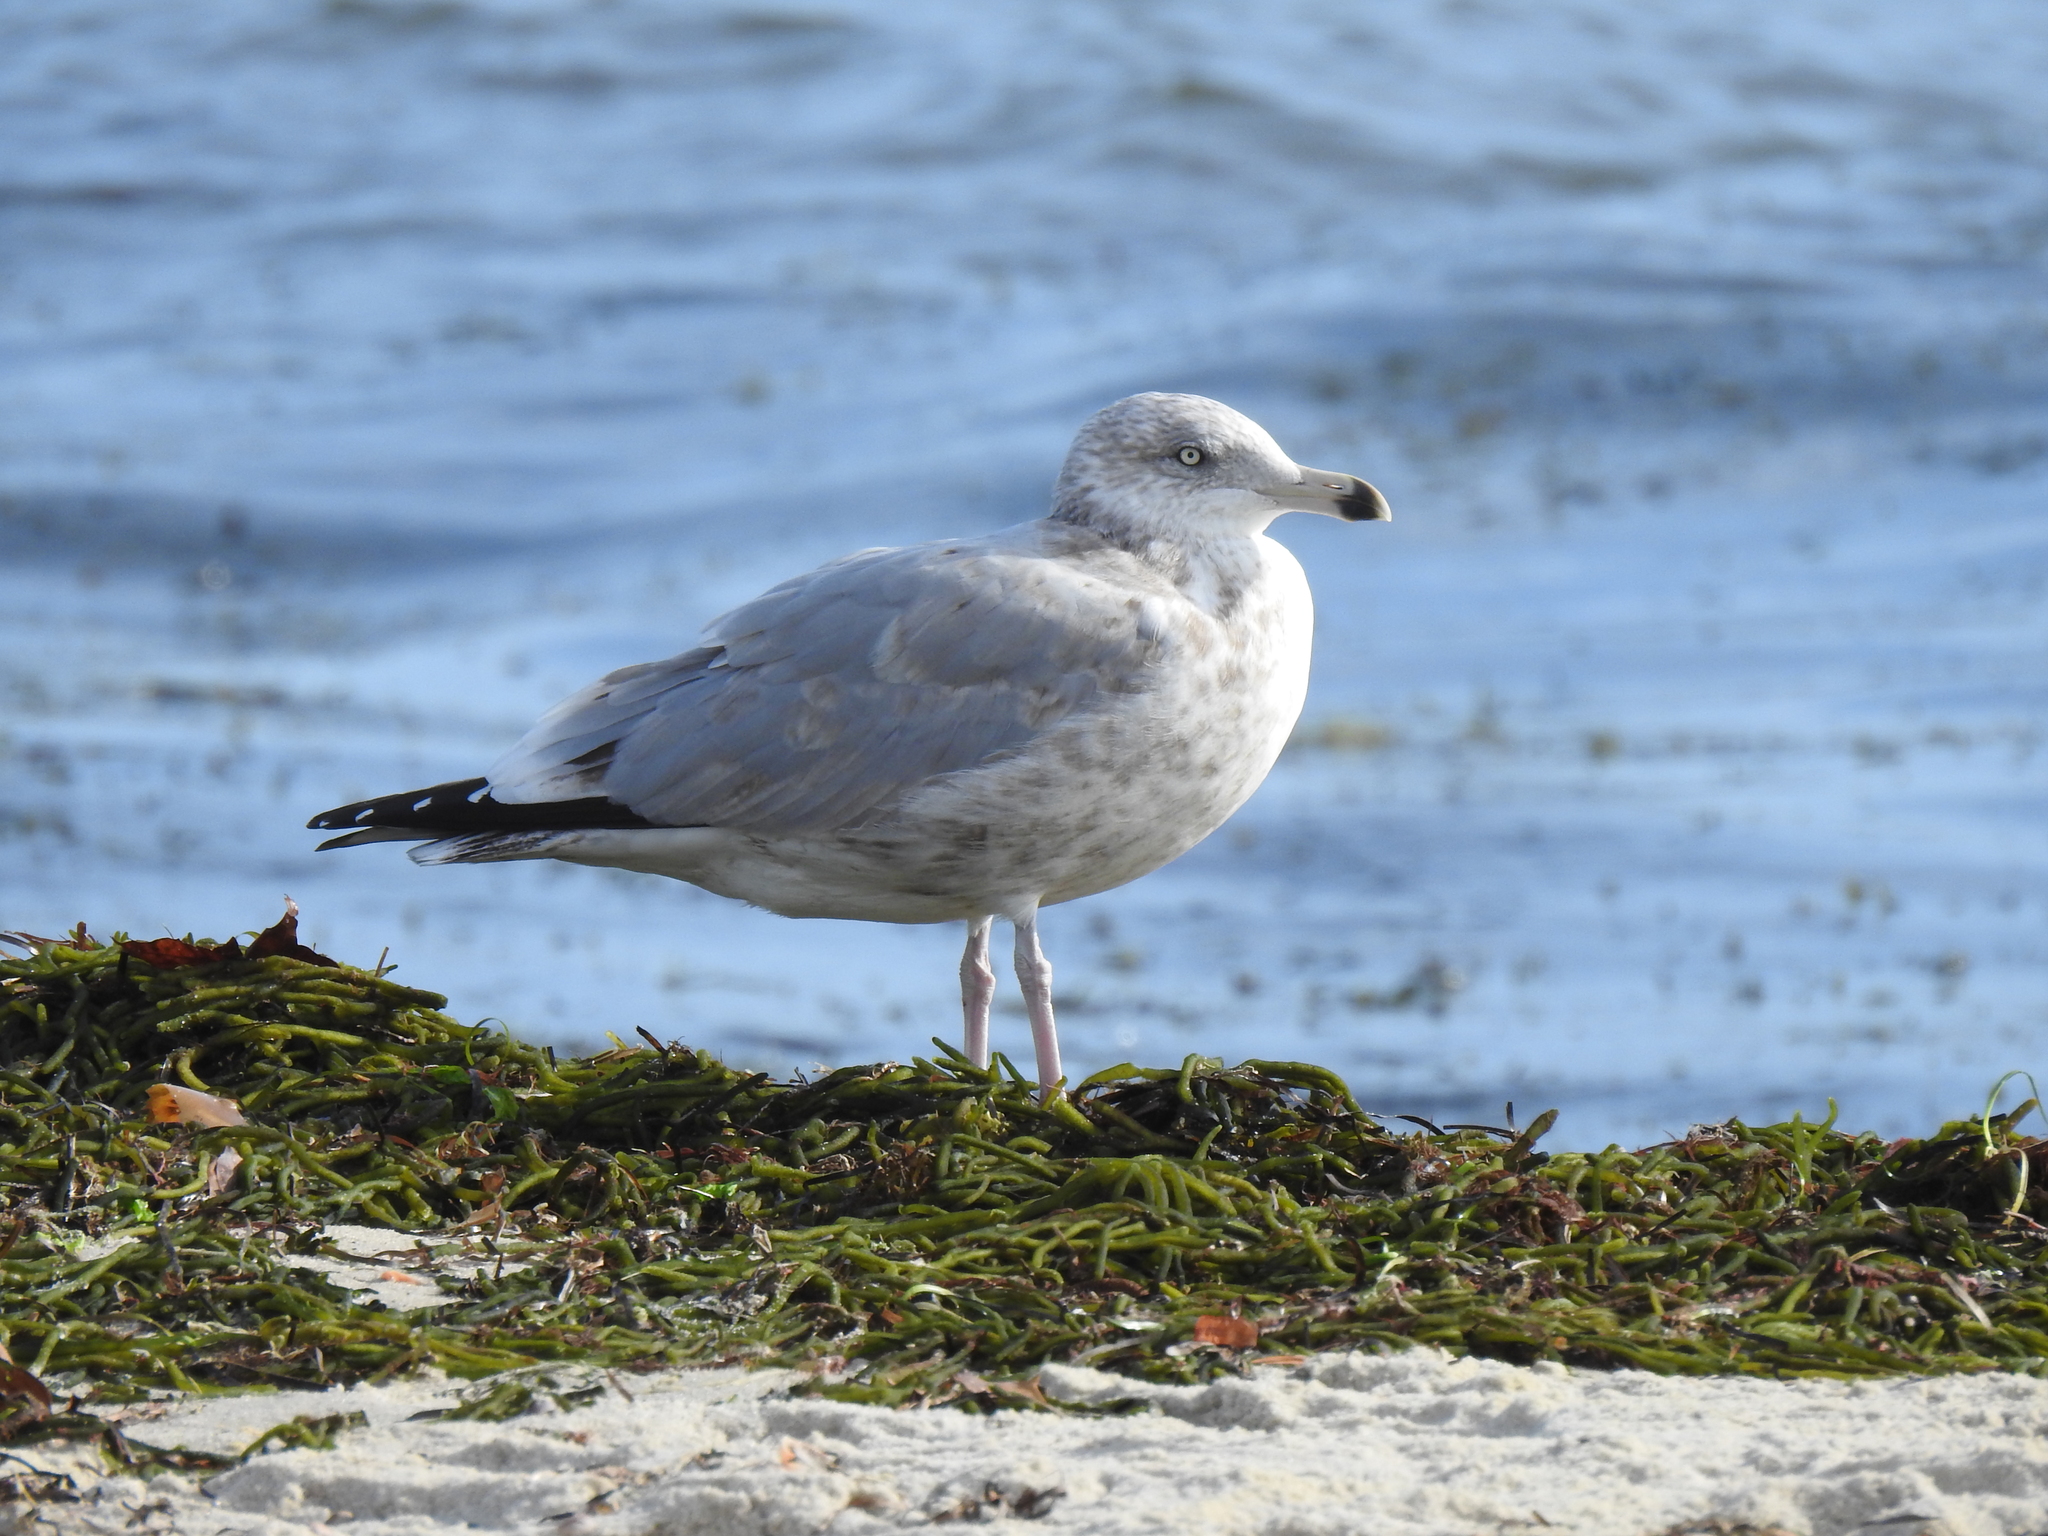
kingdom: Animalia
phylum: Chordata
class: Aves
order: Charadriiformes
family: Laridae
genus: Larus
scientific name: Larus argentatus
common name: Herring gull
